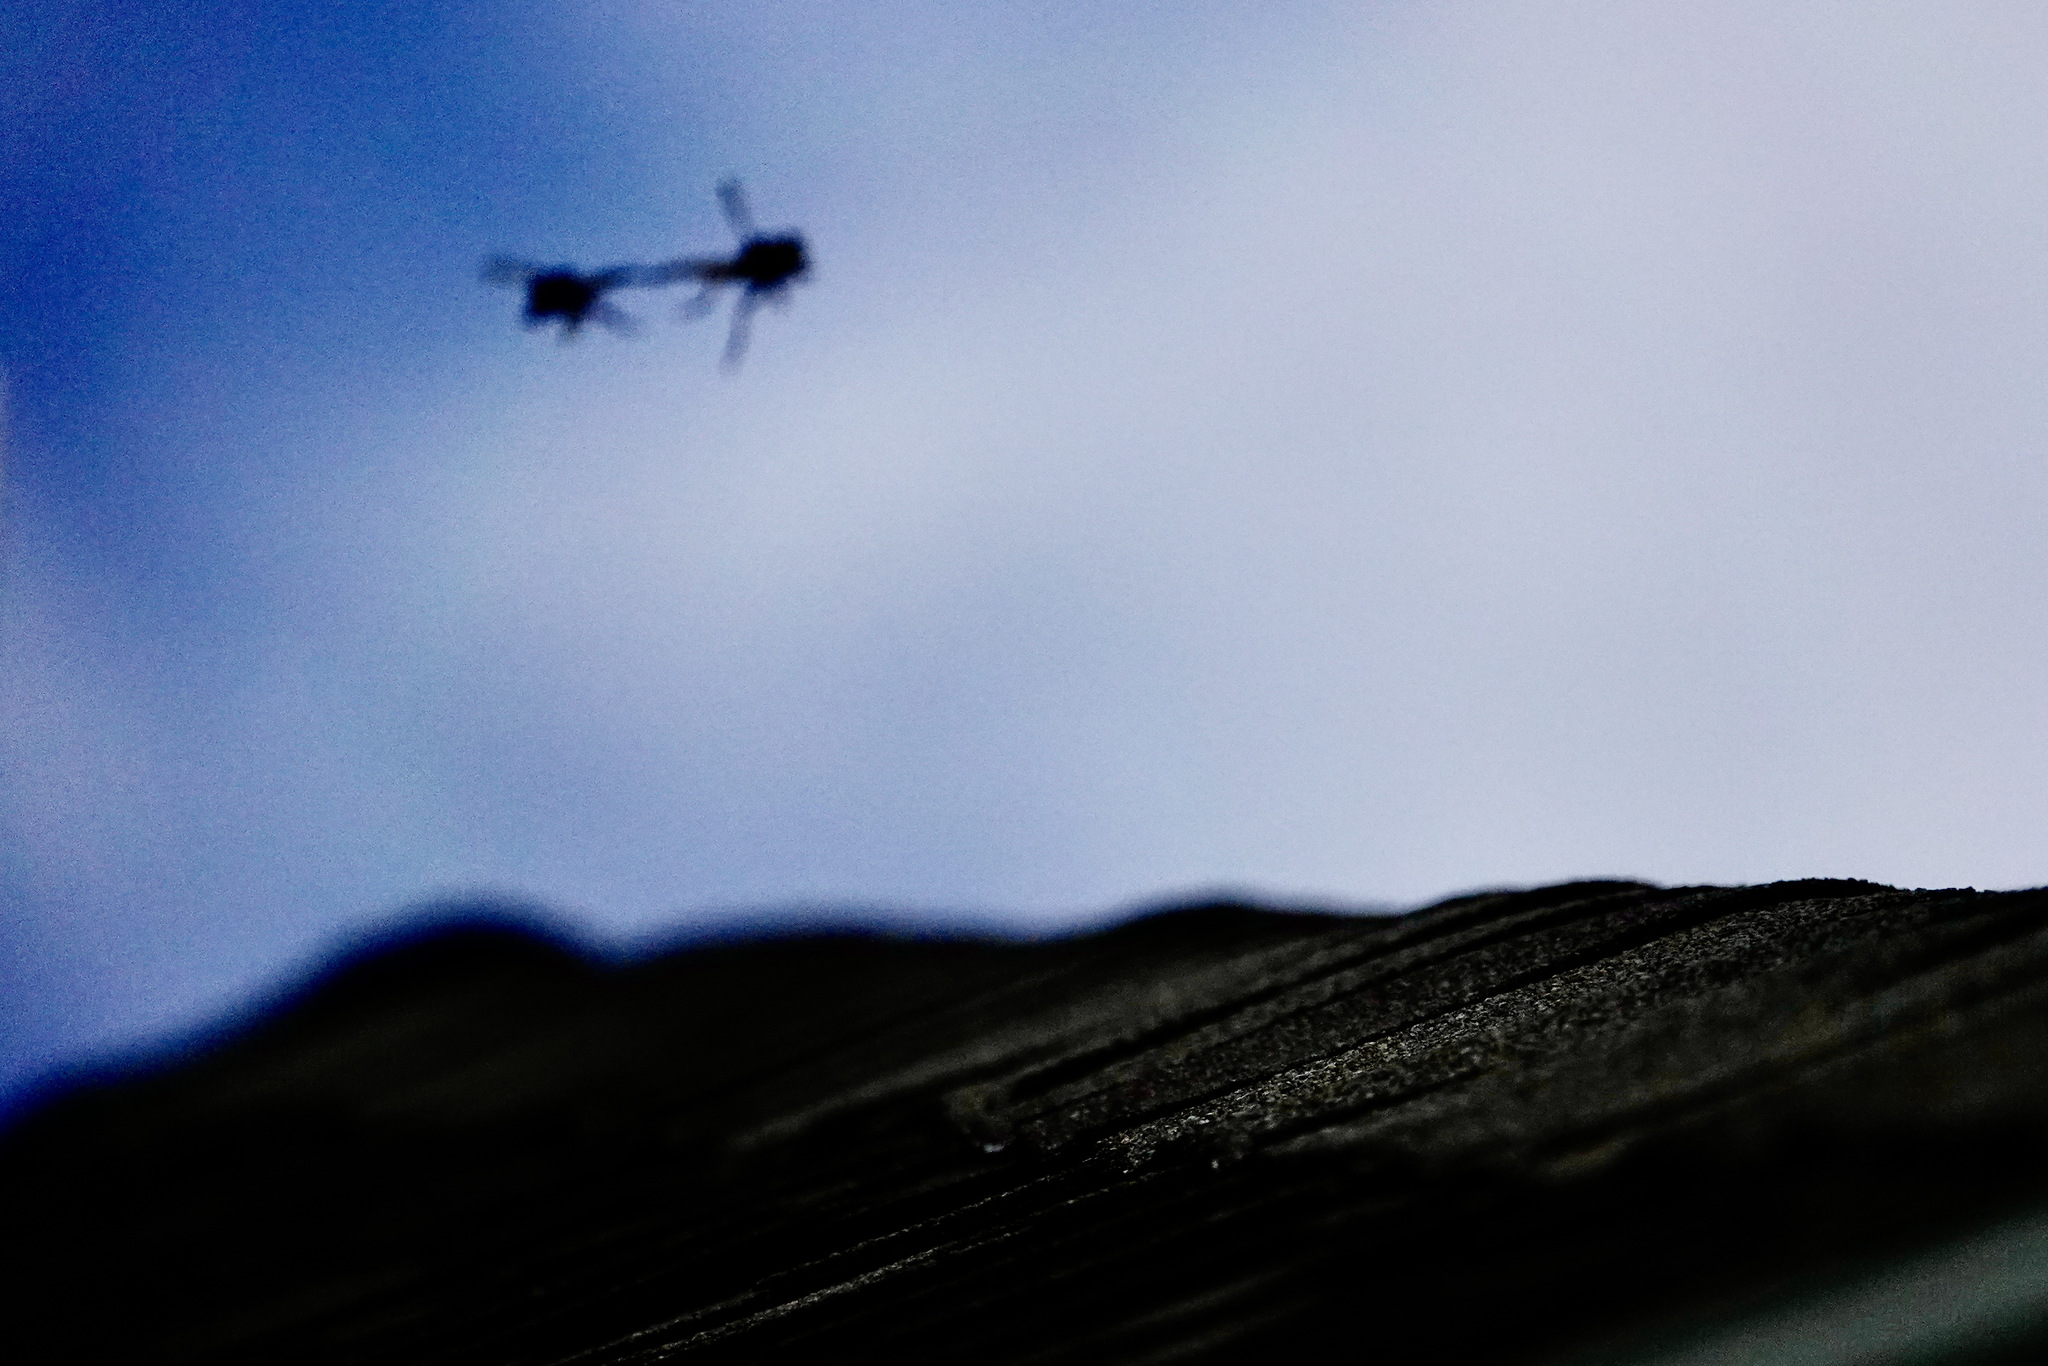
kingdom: Animalia
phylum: Arthropoda
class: Insecta
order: Diptera
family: Asilidae
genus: Promachus
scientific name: Promachus rufipes
